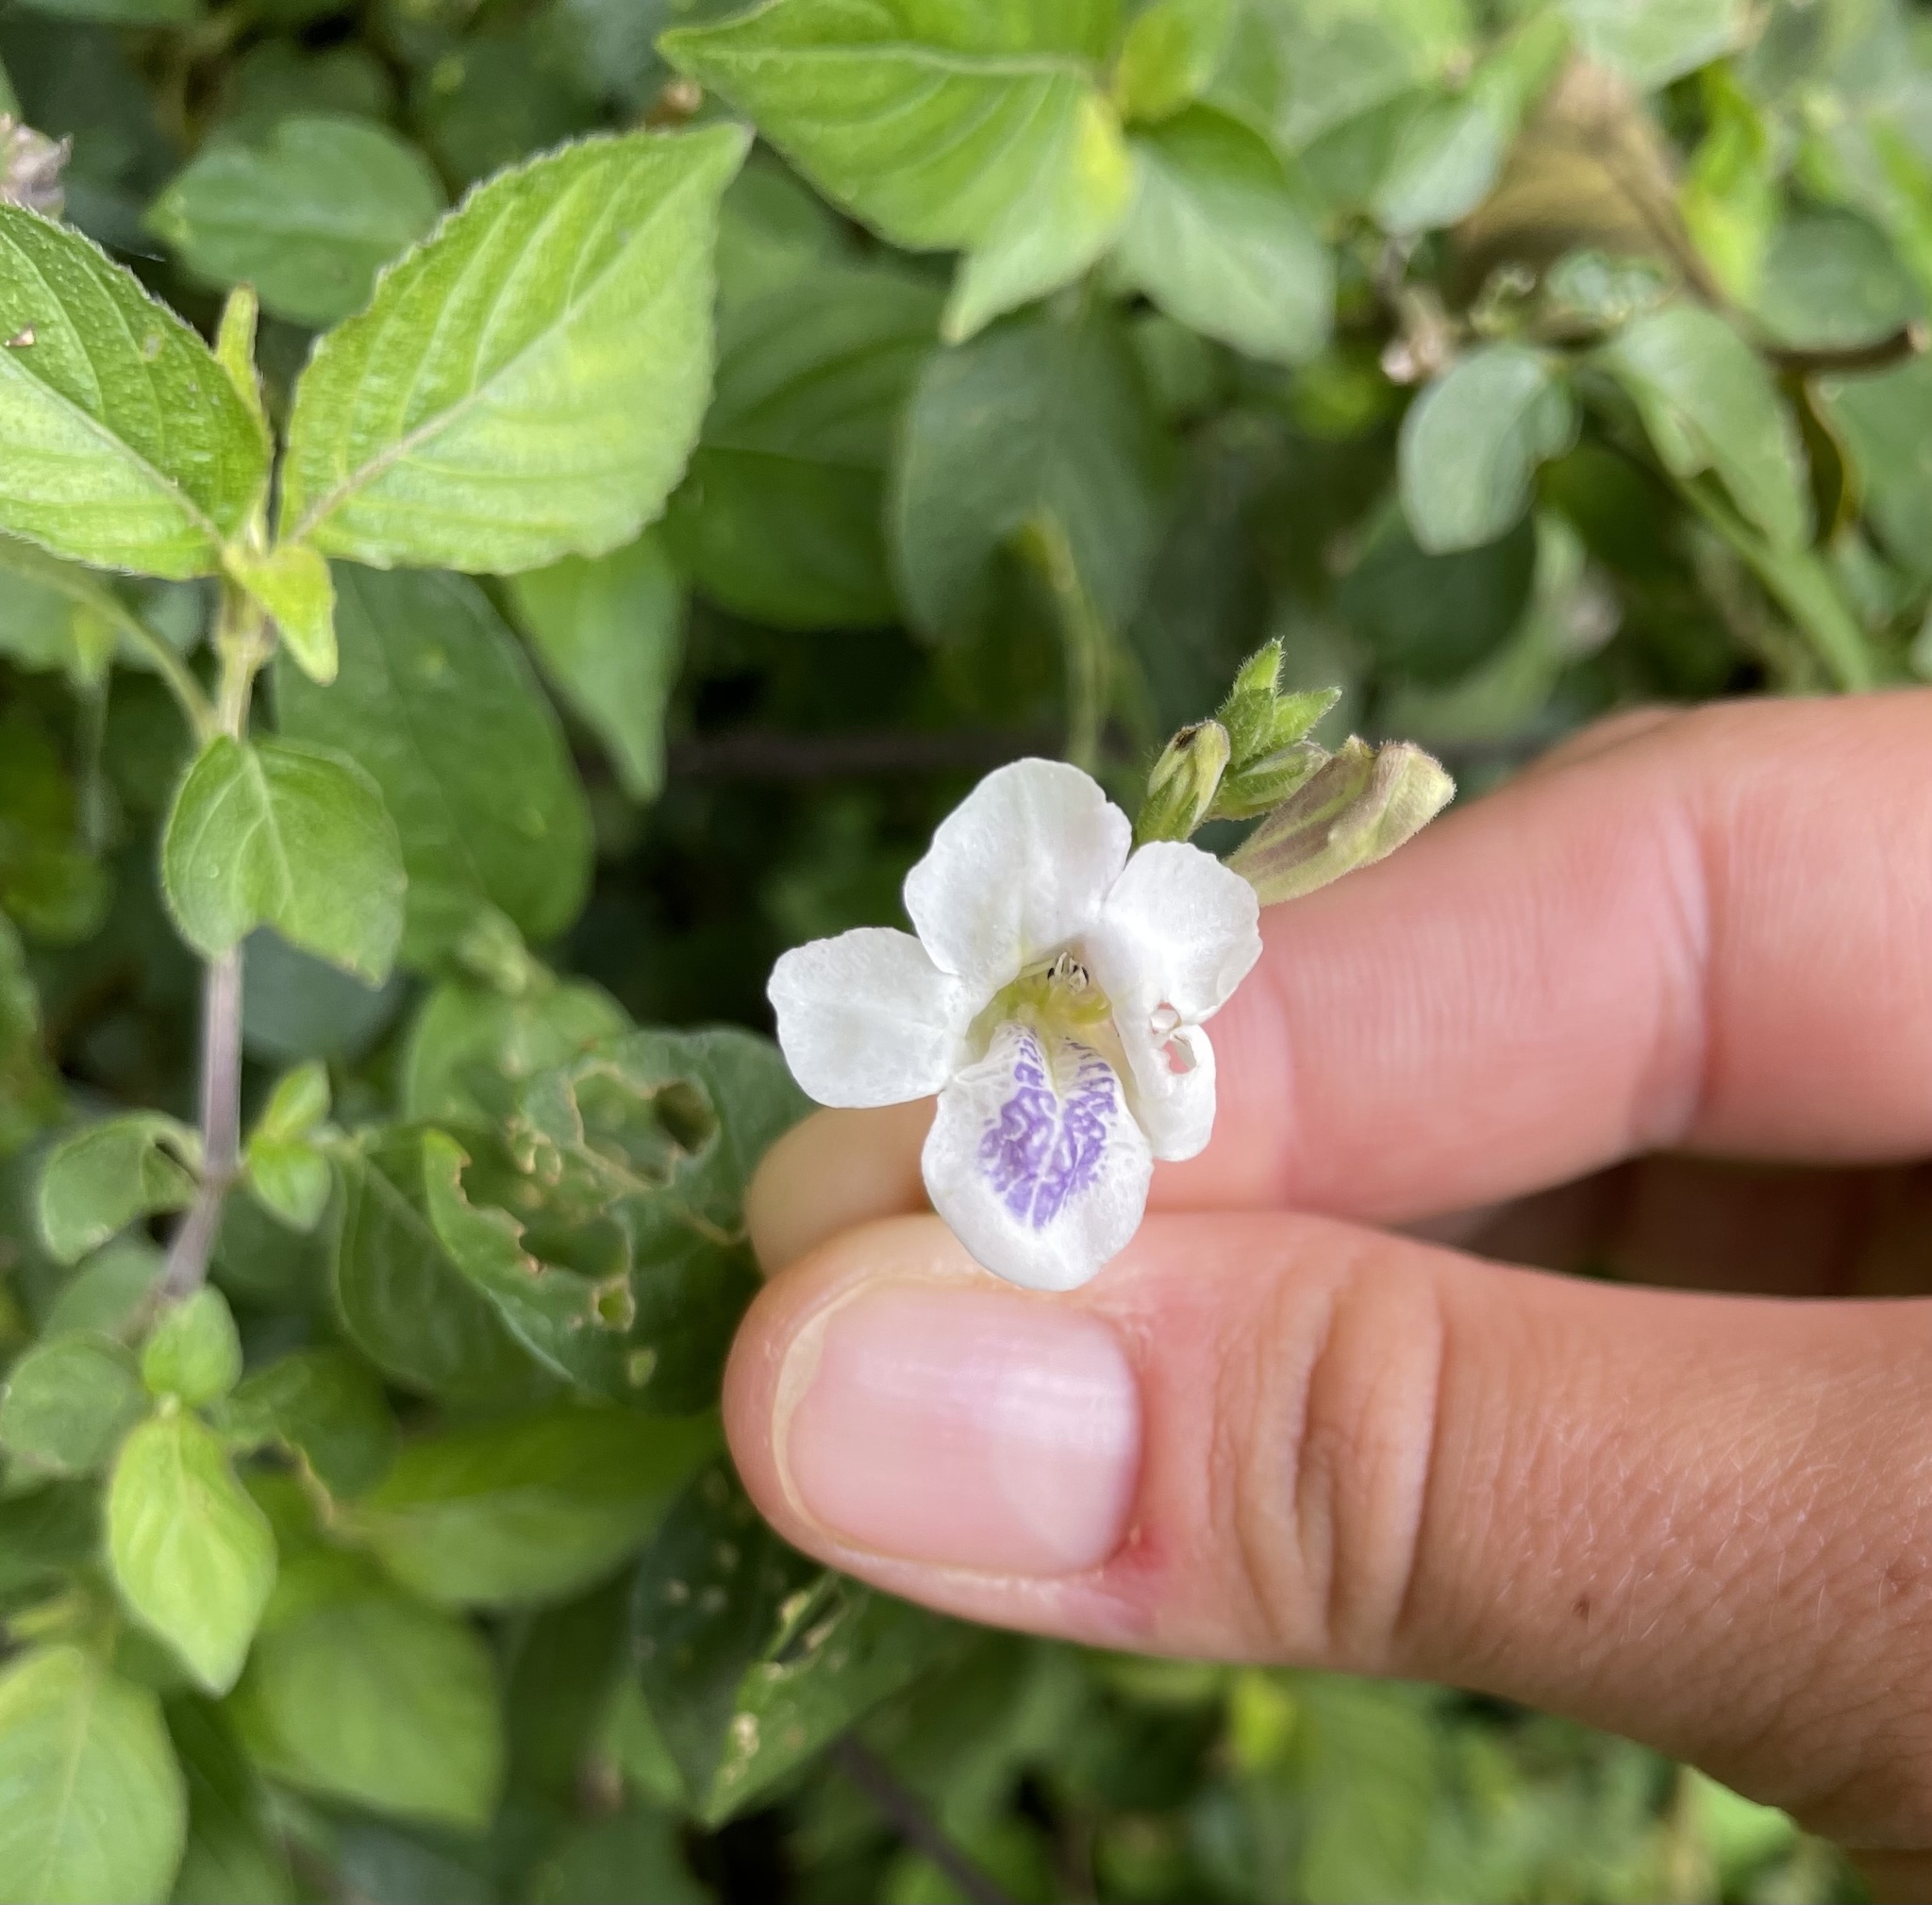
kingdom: Plantae
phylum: Tracheophyta
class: Magnoliopsida
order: Lamiales
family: Acanthaceae
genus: Asystasia
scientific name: Asystasia intrusa
